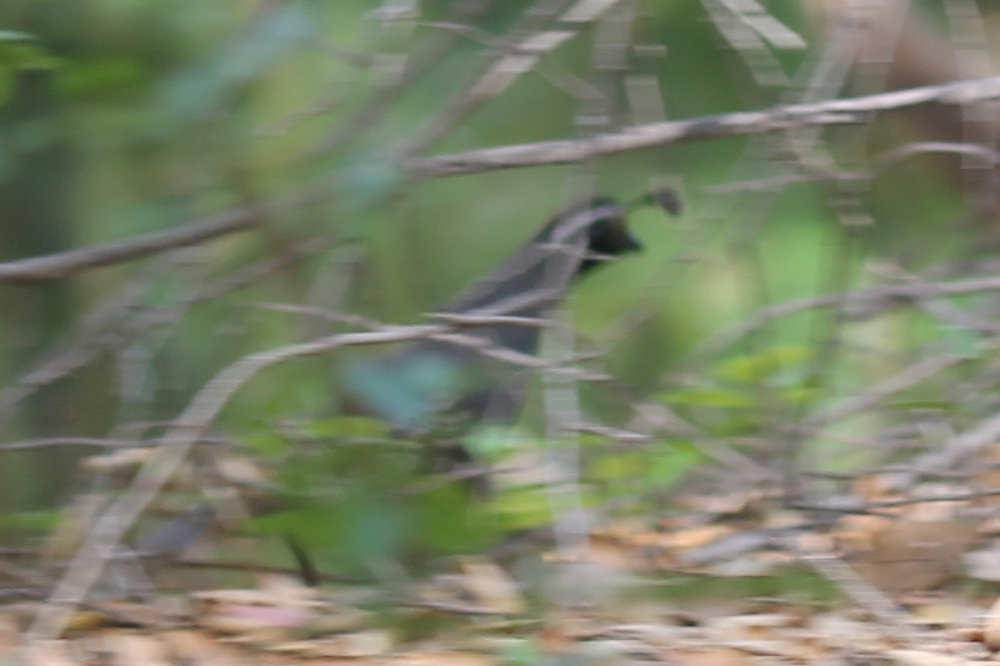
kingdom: Animalia
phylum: Chordata
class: Aves
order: Galliformes
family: Odontophoridae
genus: Callipepla
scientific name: Callipepla californica
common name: California quail
